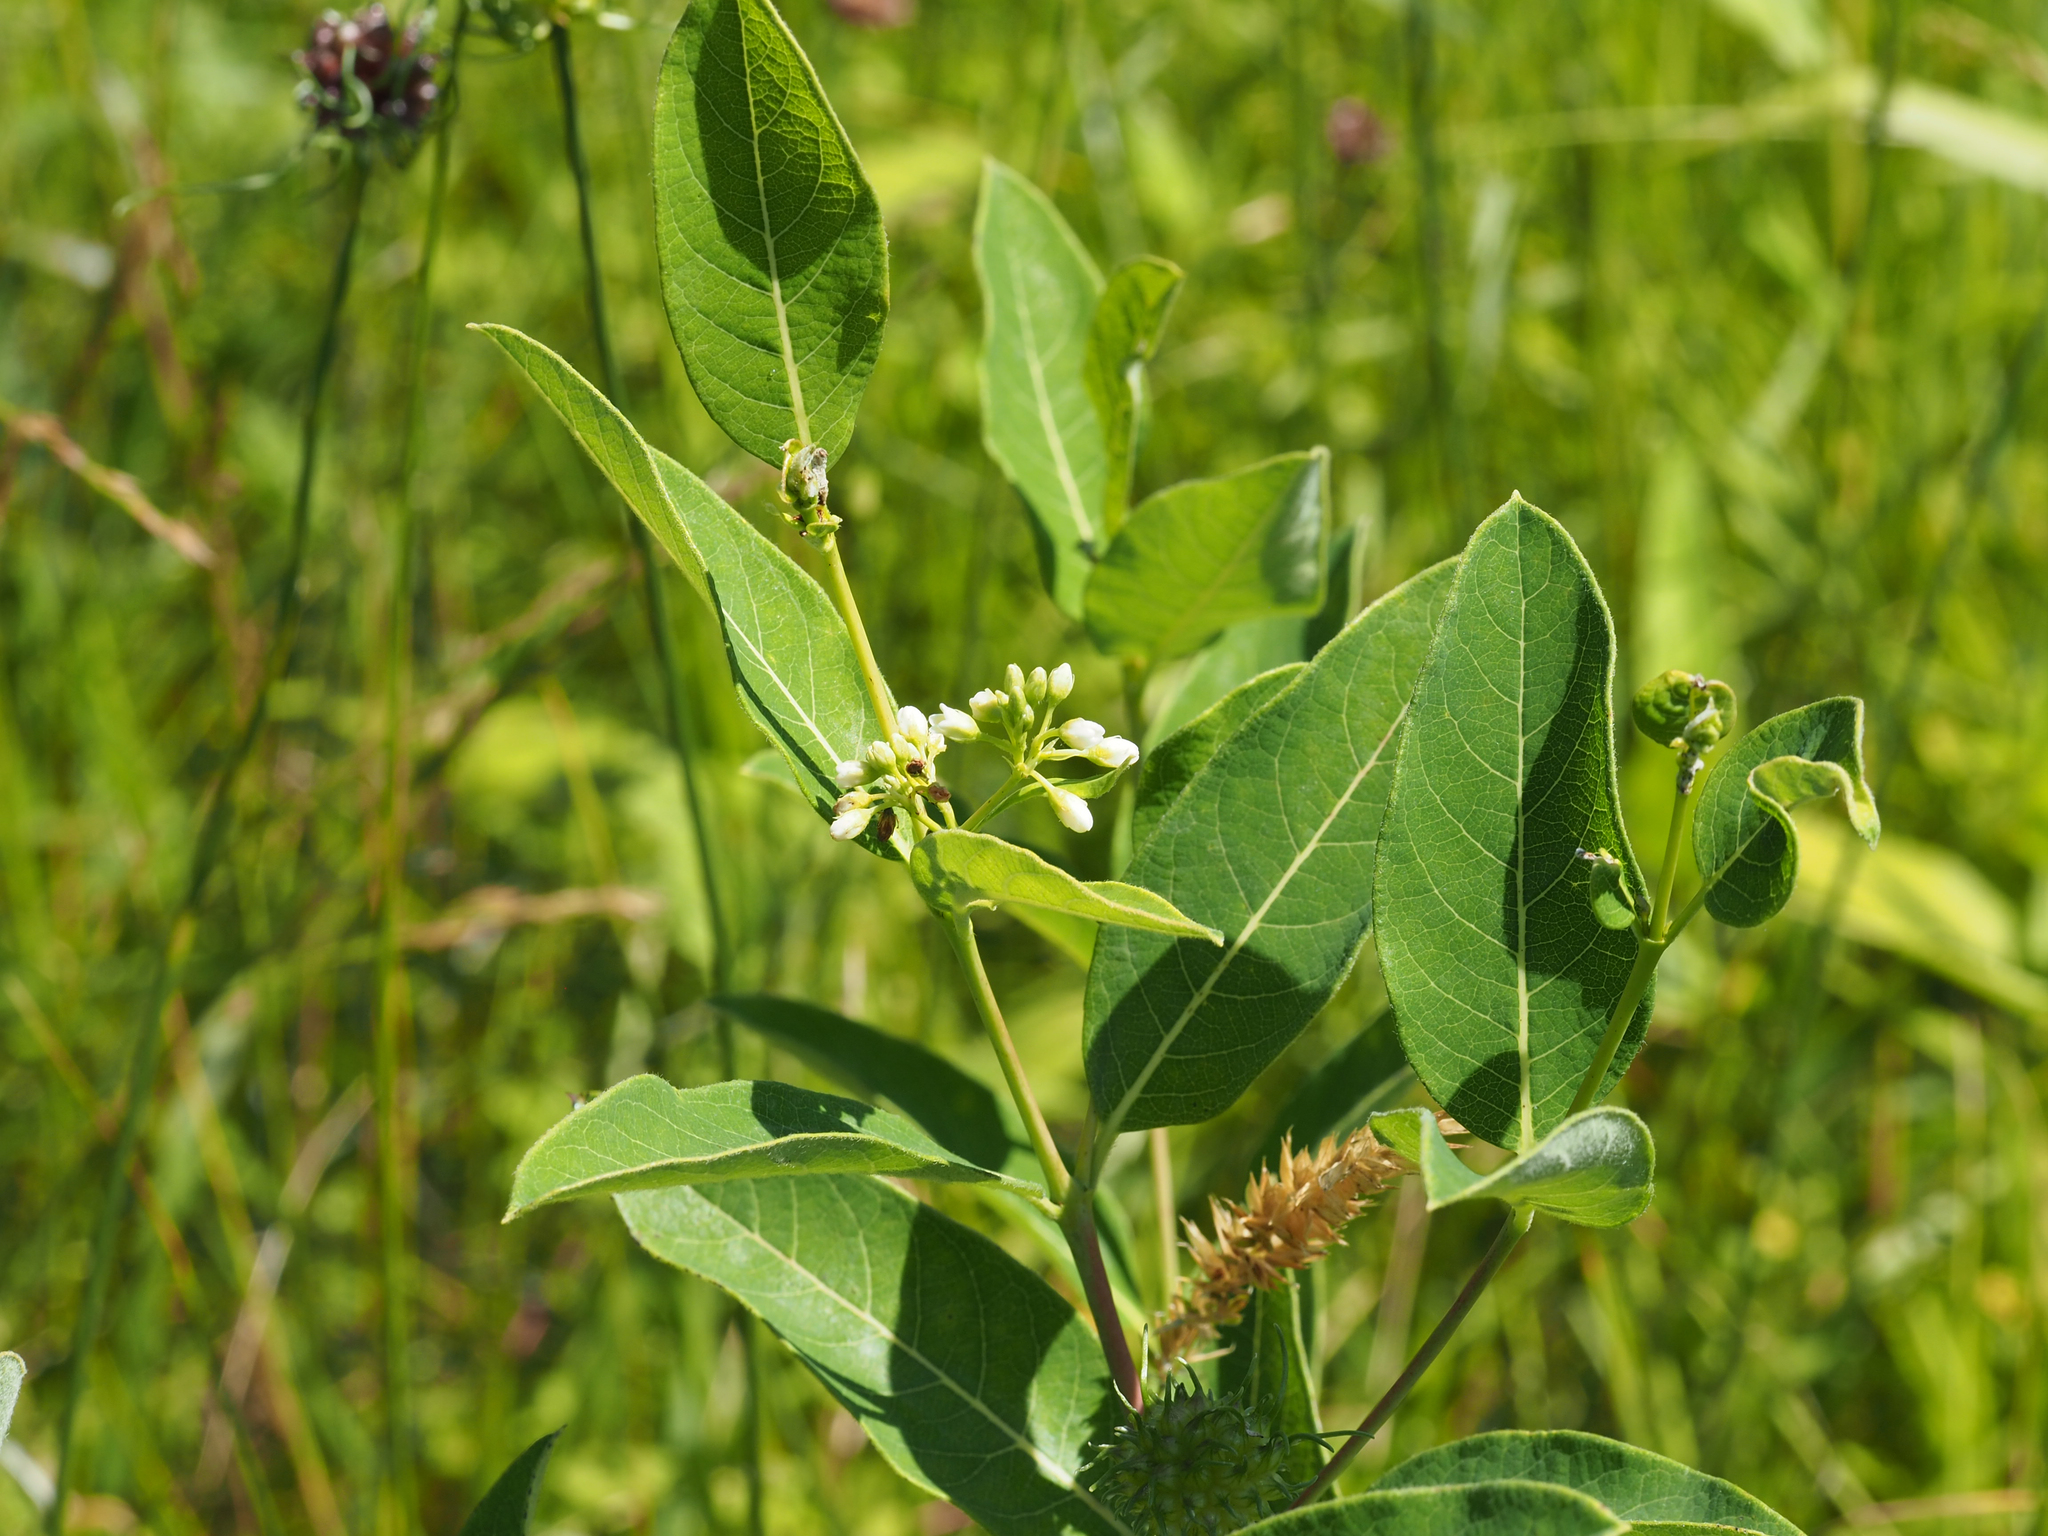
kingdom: Plantae
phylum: Tracheophyta
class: Magnoliopsida
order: Gentianales
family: Apocynaceae
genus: Apocynum
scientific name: Apocynum cannabinum
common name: Hemp dogbane
